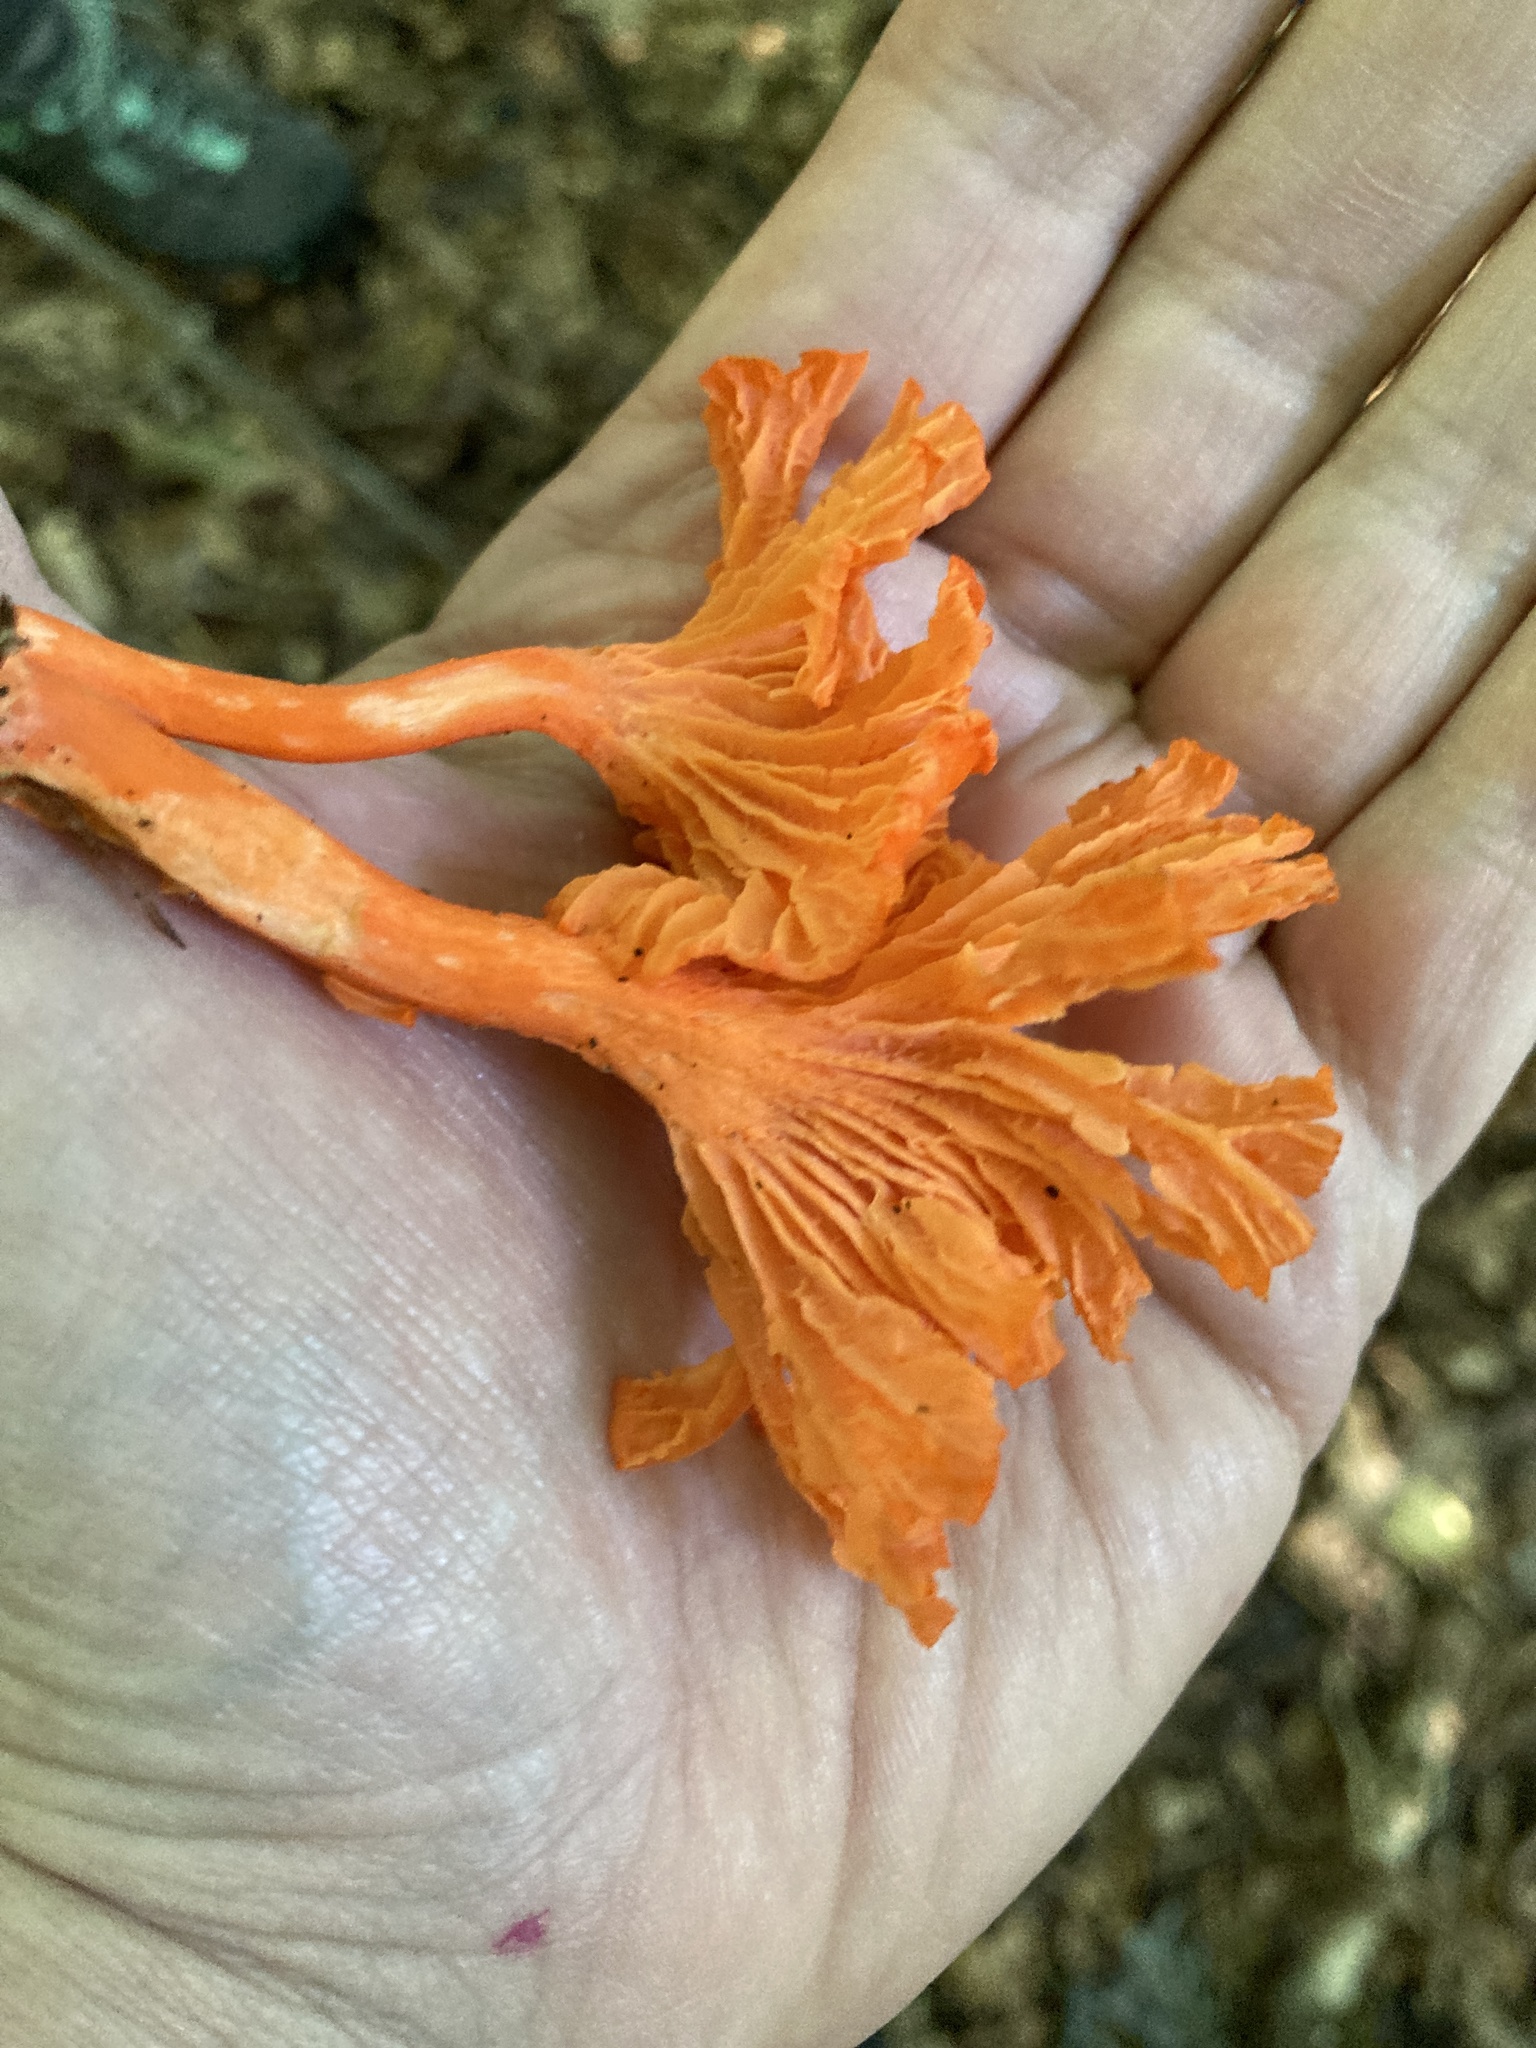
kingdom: Fungi
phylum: Basidiomycota
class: Agaricomycetes
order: Cantharellales
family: Hydnaceae
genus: Cantharellus
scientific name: Cantharellus cinnabarinus
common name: Cinnabar chanterelle
